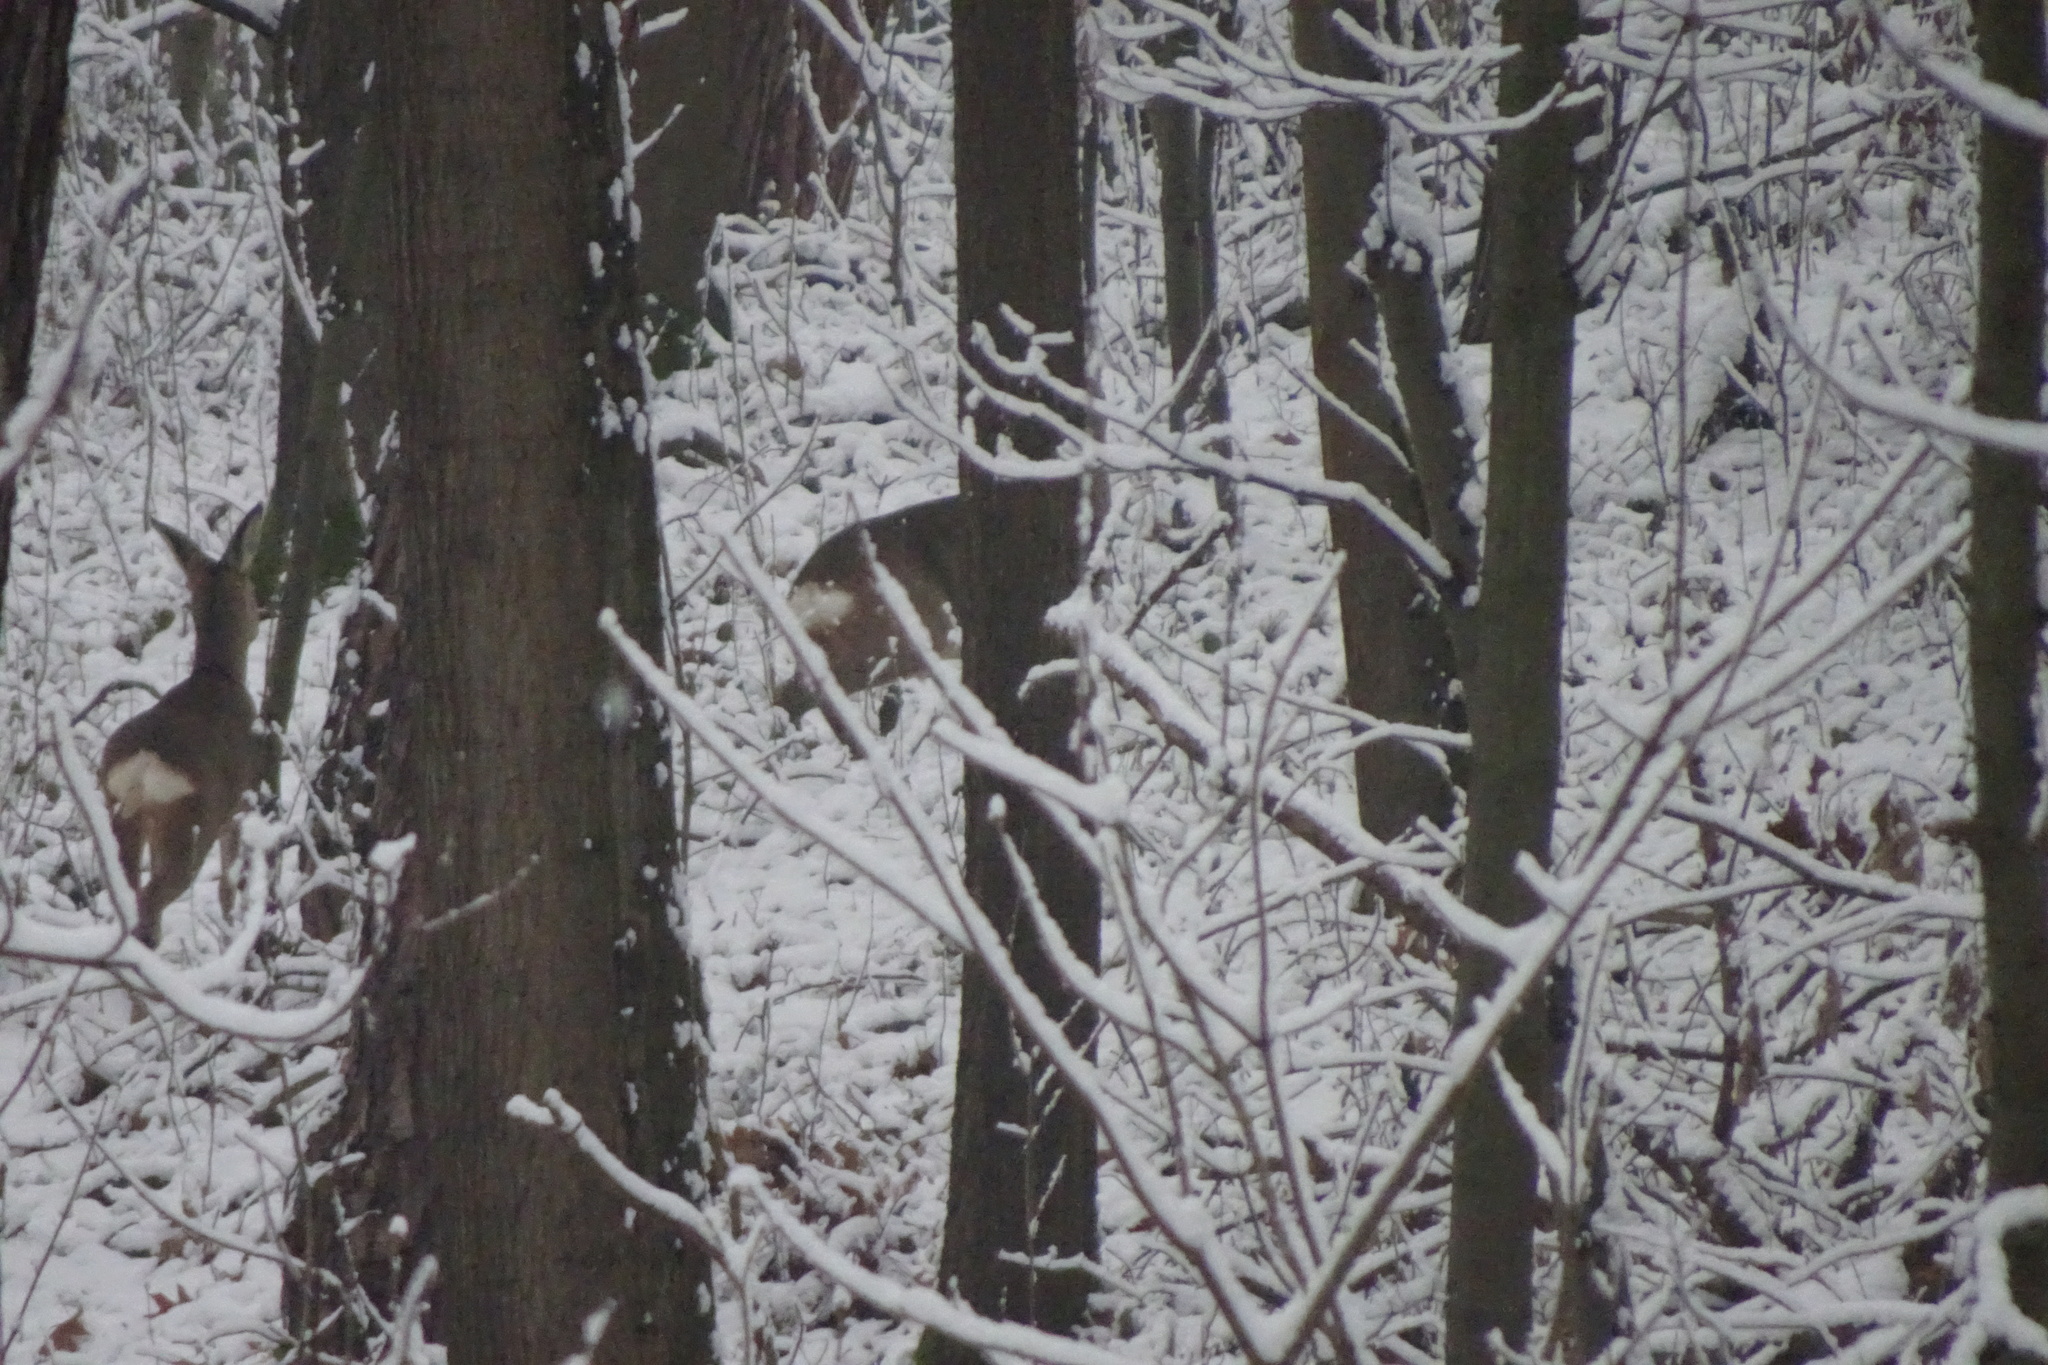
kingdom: Animalia
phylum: Chordata
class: Mammalia
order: Artiodactyla
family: Cervidae
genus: Capreolus
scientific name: Capreolus capreolus
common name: Western roe deer
